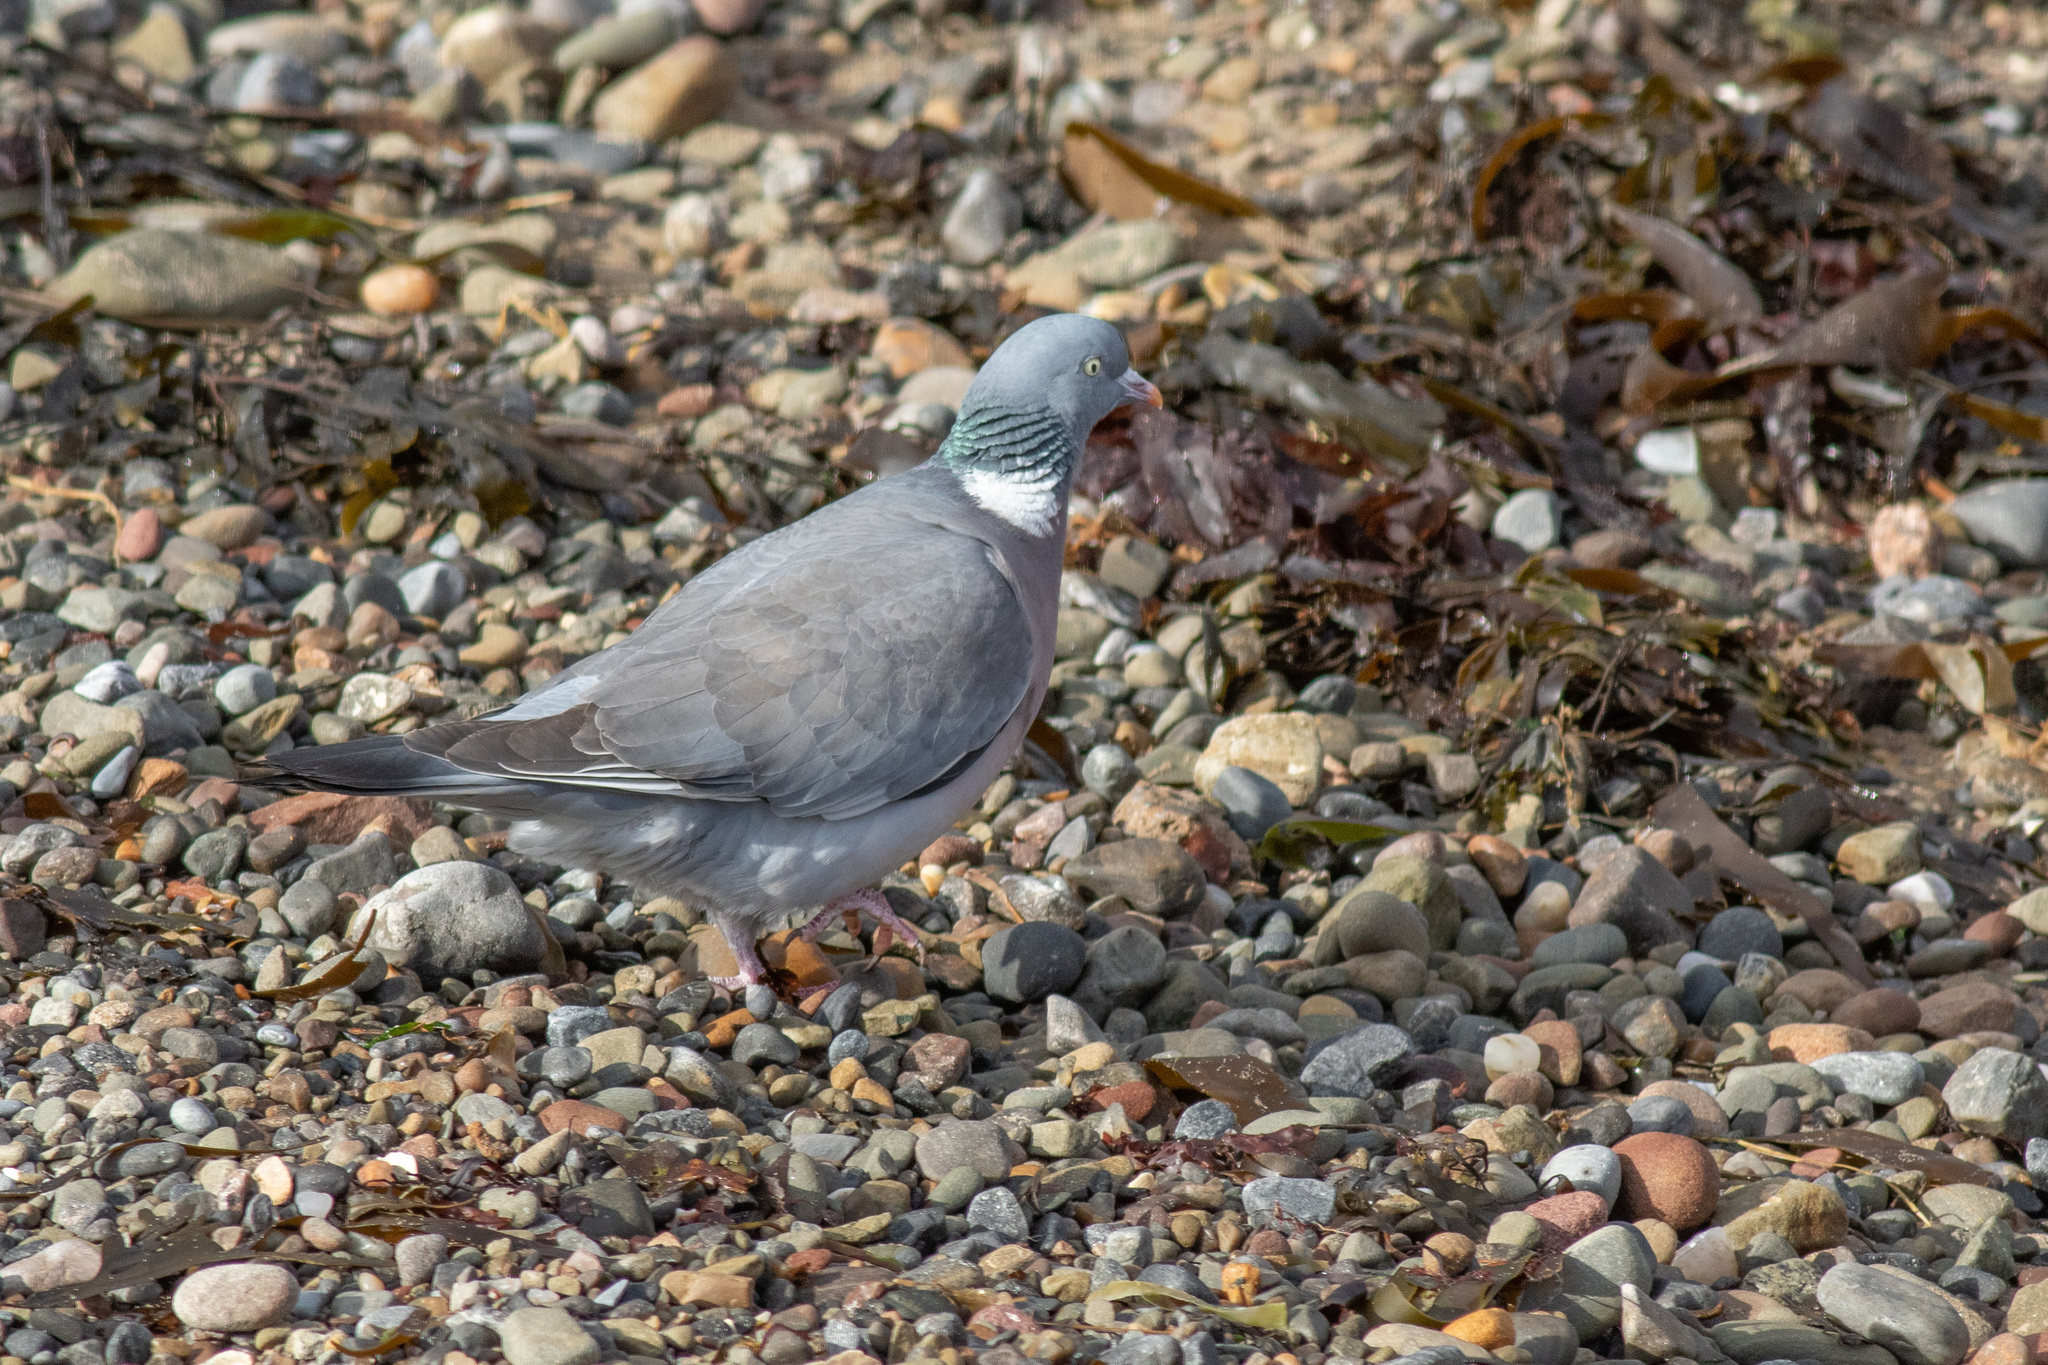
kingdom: Animalia
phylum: Chordata
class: Aves
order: Columbiformes
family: Columbidae
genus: Columba
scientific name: Columba palumbus
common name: Common wood pigeon
